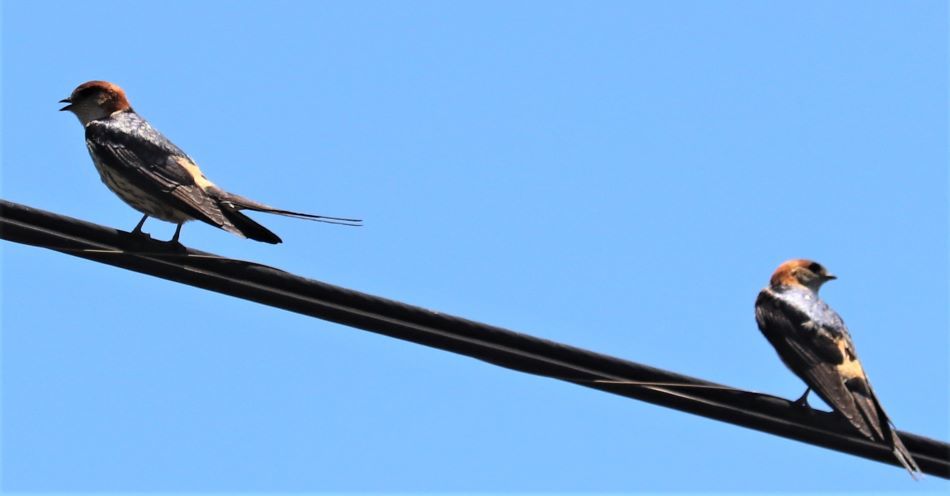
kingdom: Animalia
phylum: Chordata
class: Aves
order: Passeriformes
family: Hirundinidae
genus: Cecropis
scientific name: Cecropis abyssinica
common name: Lesser striped-swallow
